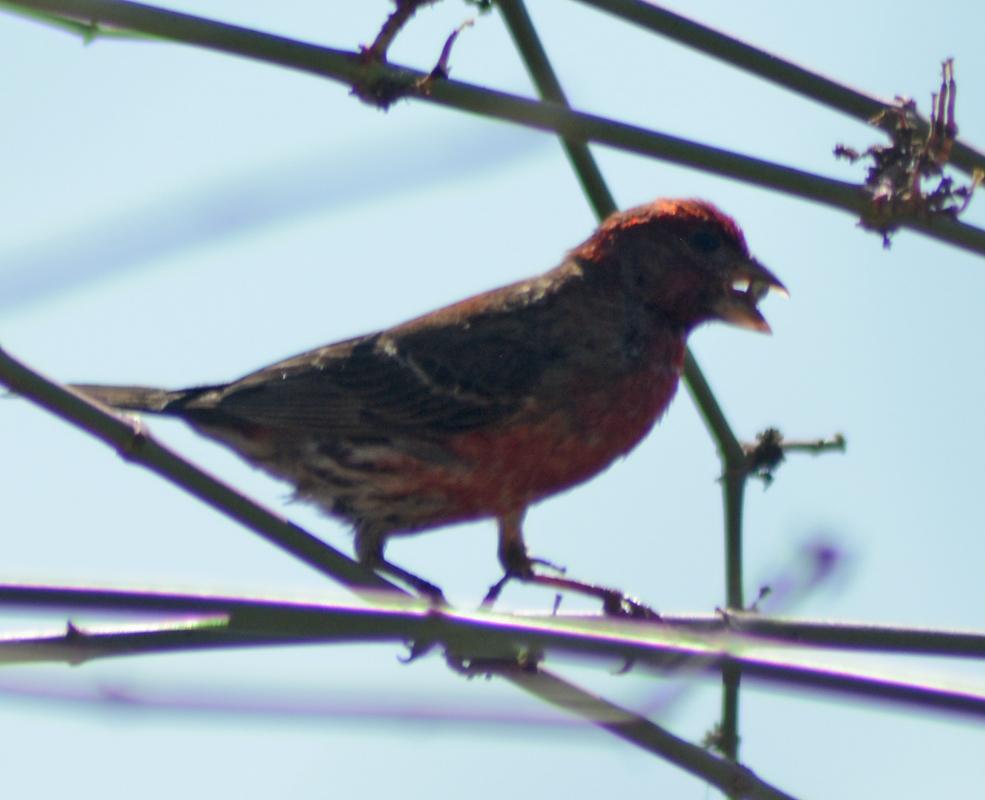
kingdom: Animalia
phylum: Chordata
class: Aves
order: Passeriformes
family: Fringillidae
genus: Haemorhous
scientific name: Haemorhous mexicanus
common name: House finch
